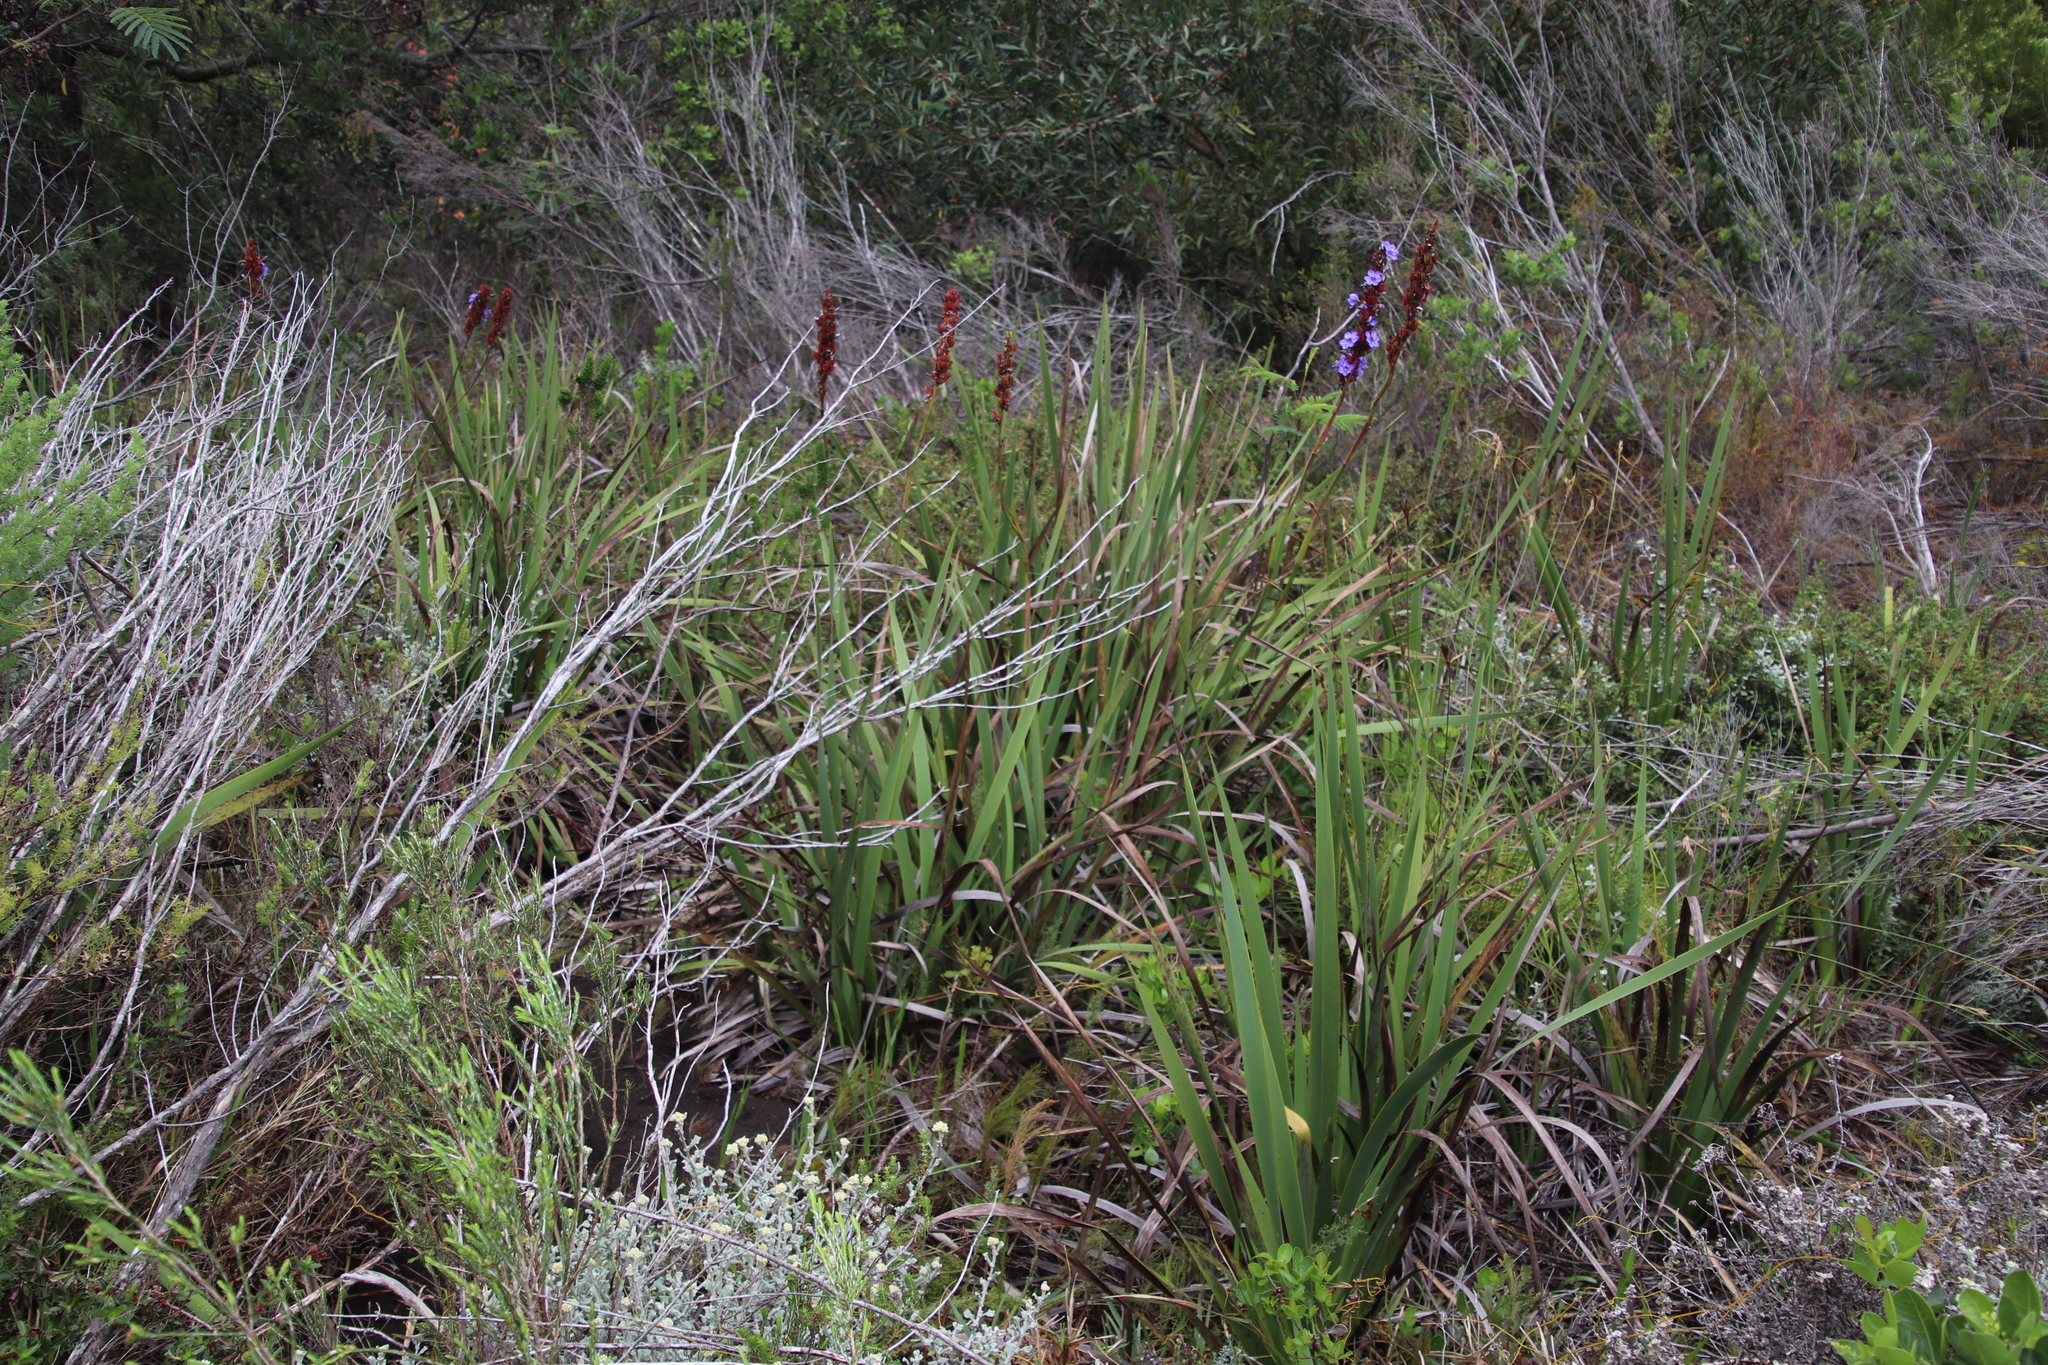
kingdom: Plantae
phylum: Tracheophyta
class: Liliopsida
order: Asparagales
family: Iridaceae
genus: Aristea
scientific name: Aristea capitata
